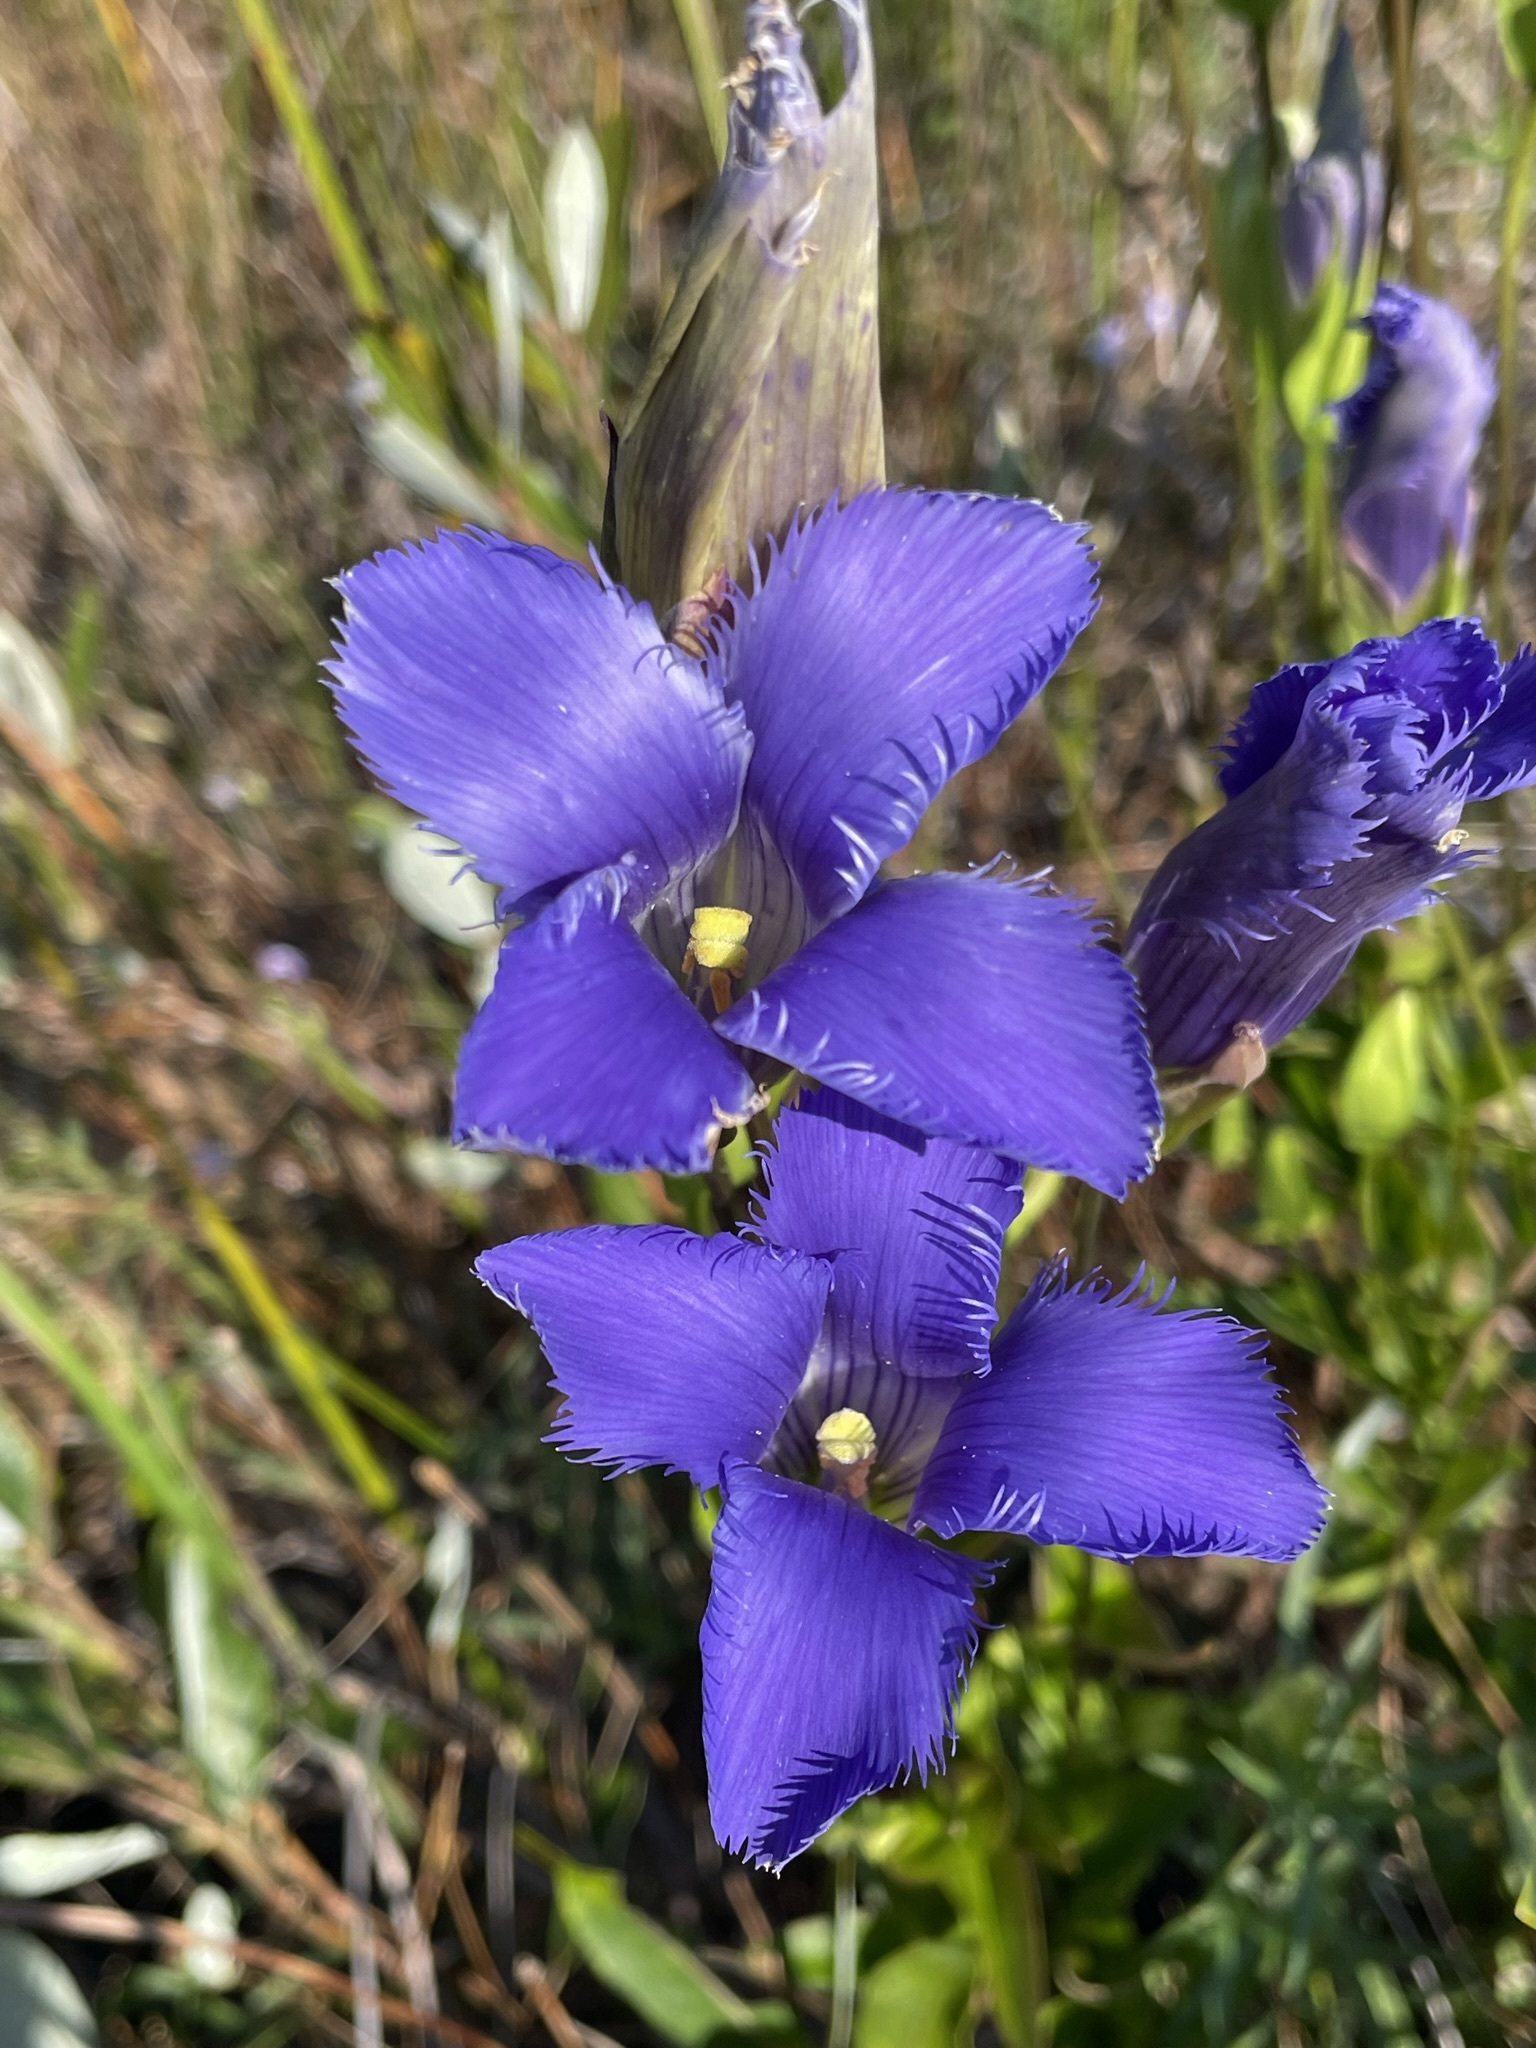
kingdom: Plantae
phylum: Tracheophyta
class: Magnoliopsida
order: Gentianales
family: Gentianaceae
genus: Gentianopsis
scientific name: Gentianopsis crinita
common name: Fringed-gentian
